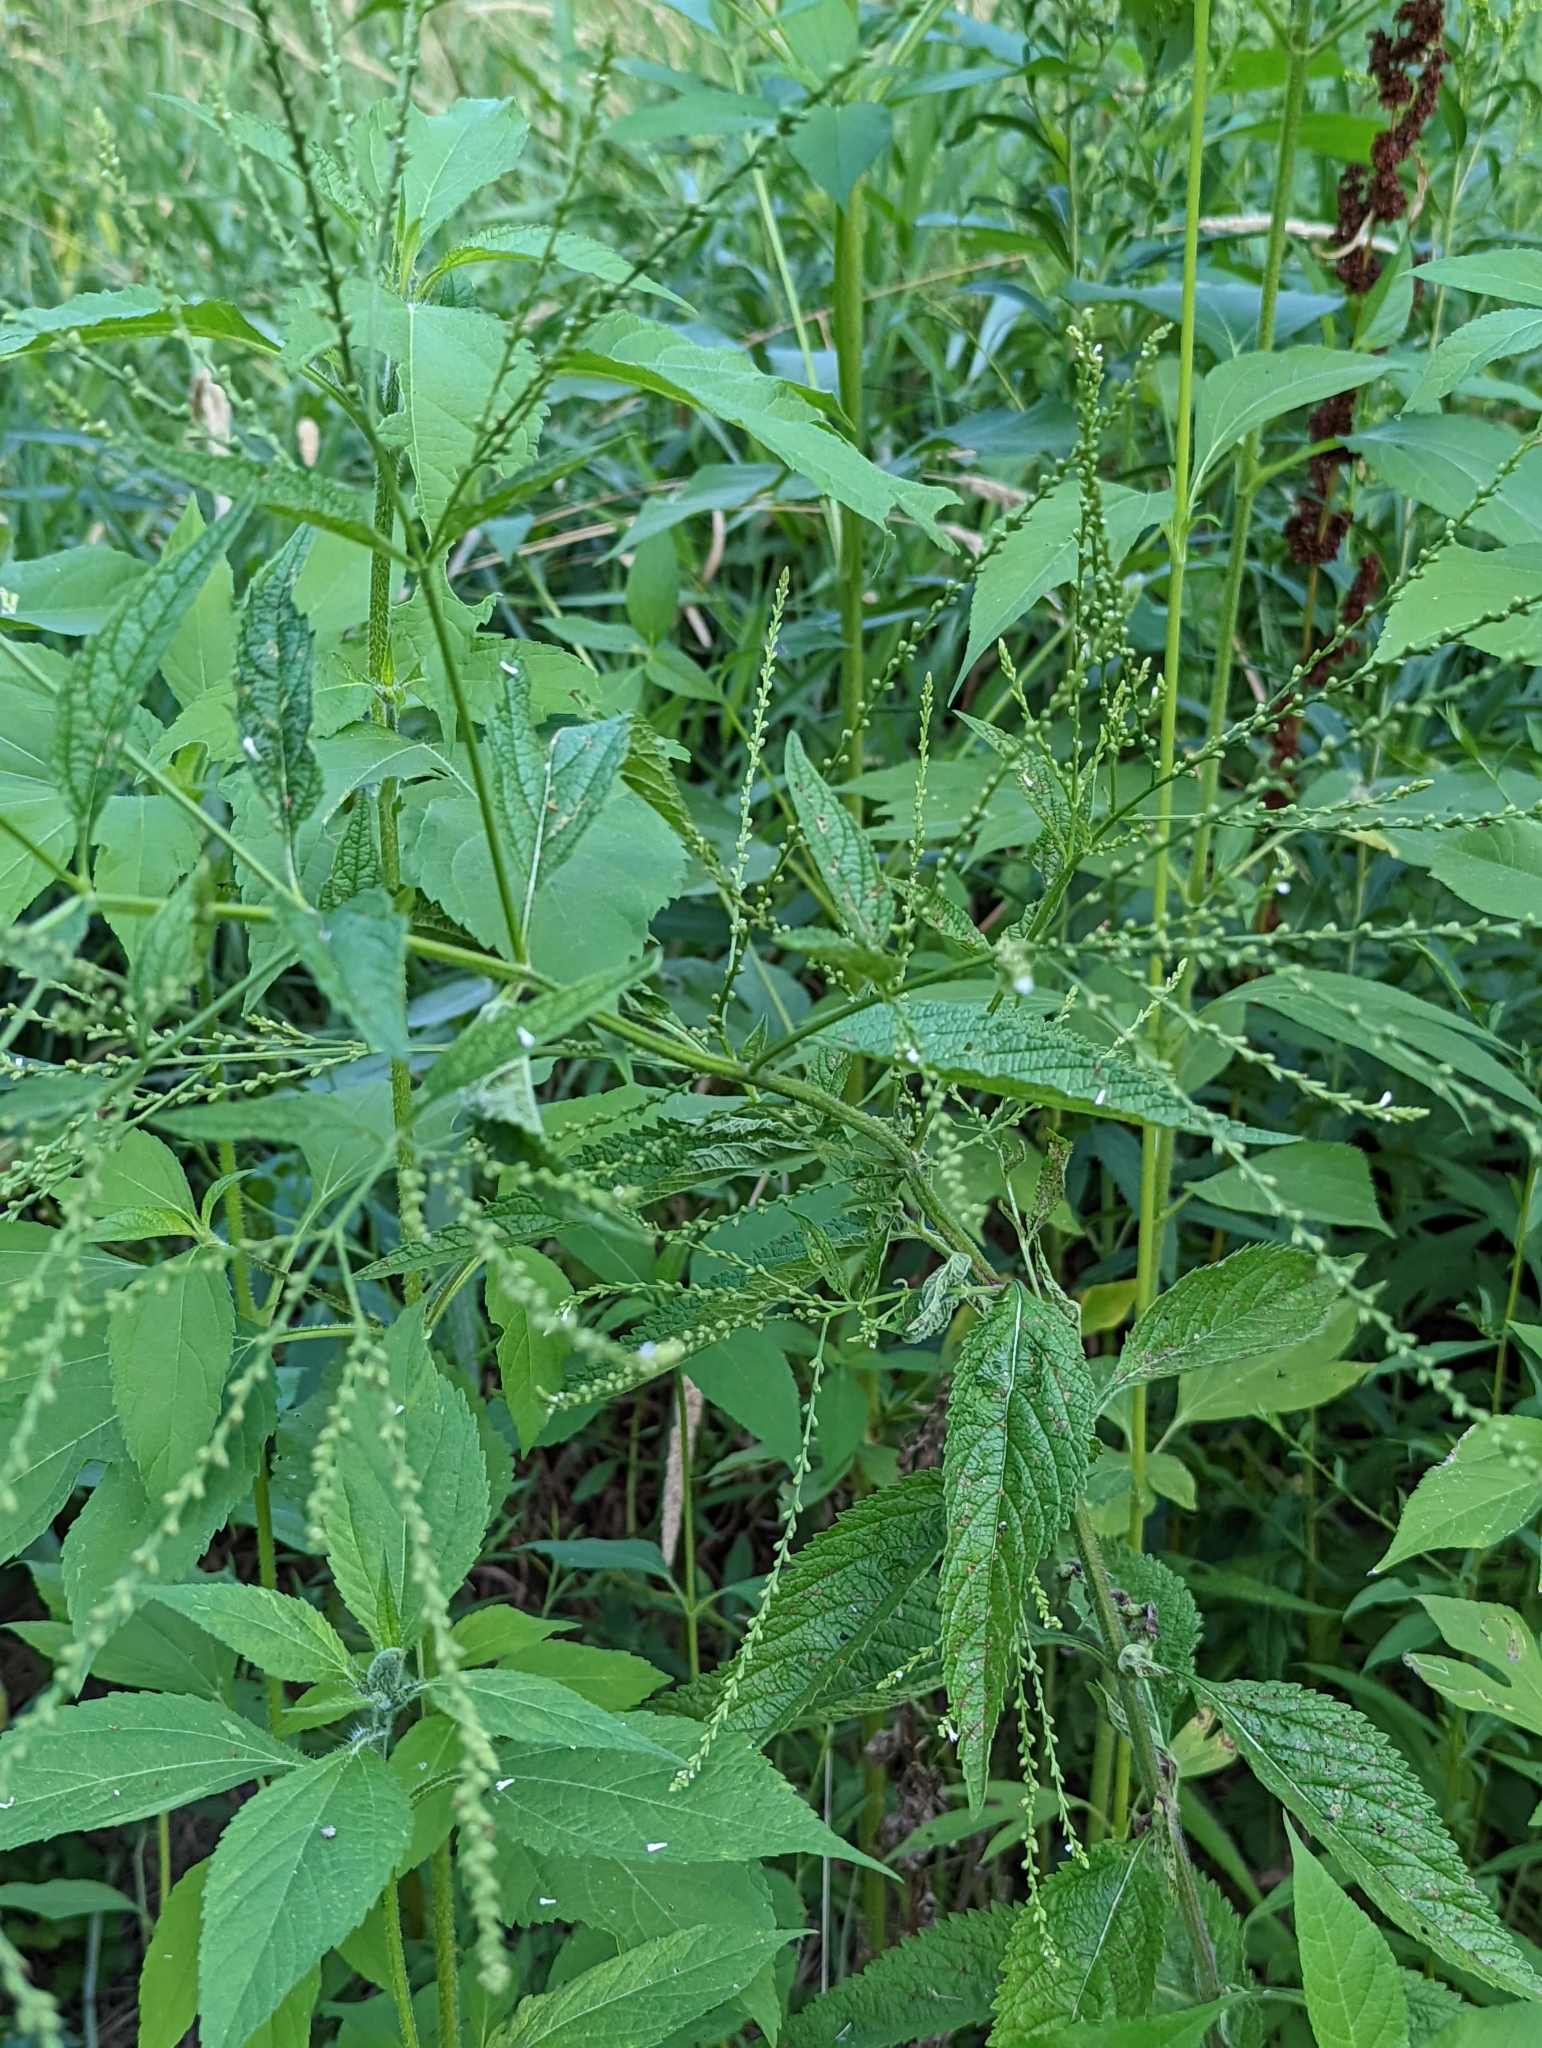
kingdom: Plantae
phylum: Tracheophyta
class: Magnoliopsida
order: Lamiales
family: Verbenaceae
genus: Verbena
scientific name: Verbena urticifolia
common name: Nettle-leaved vervain
